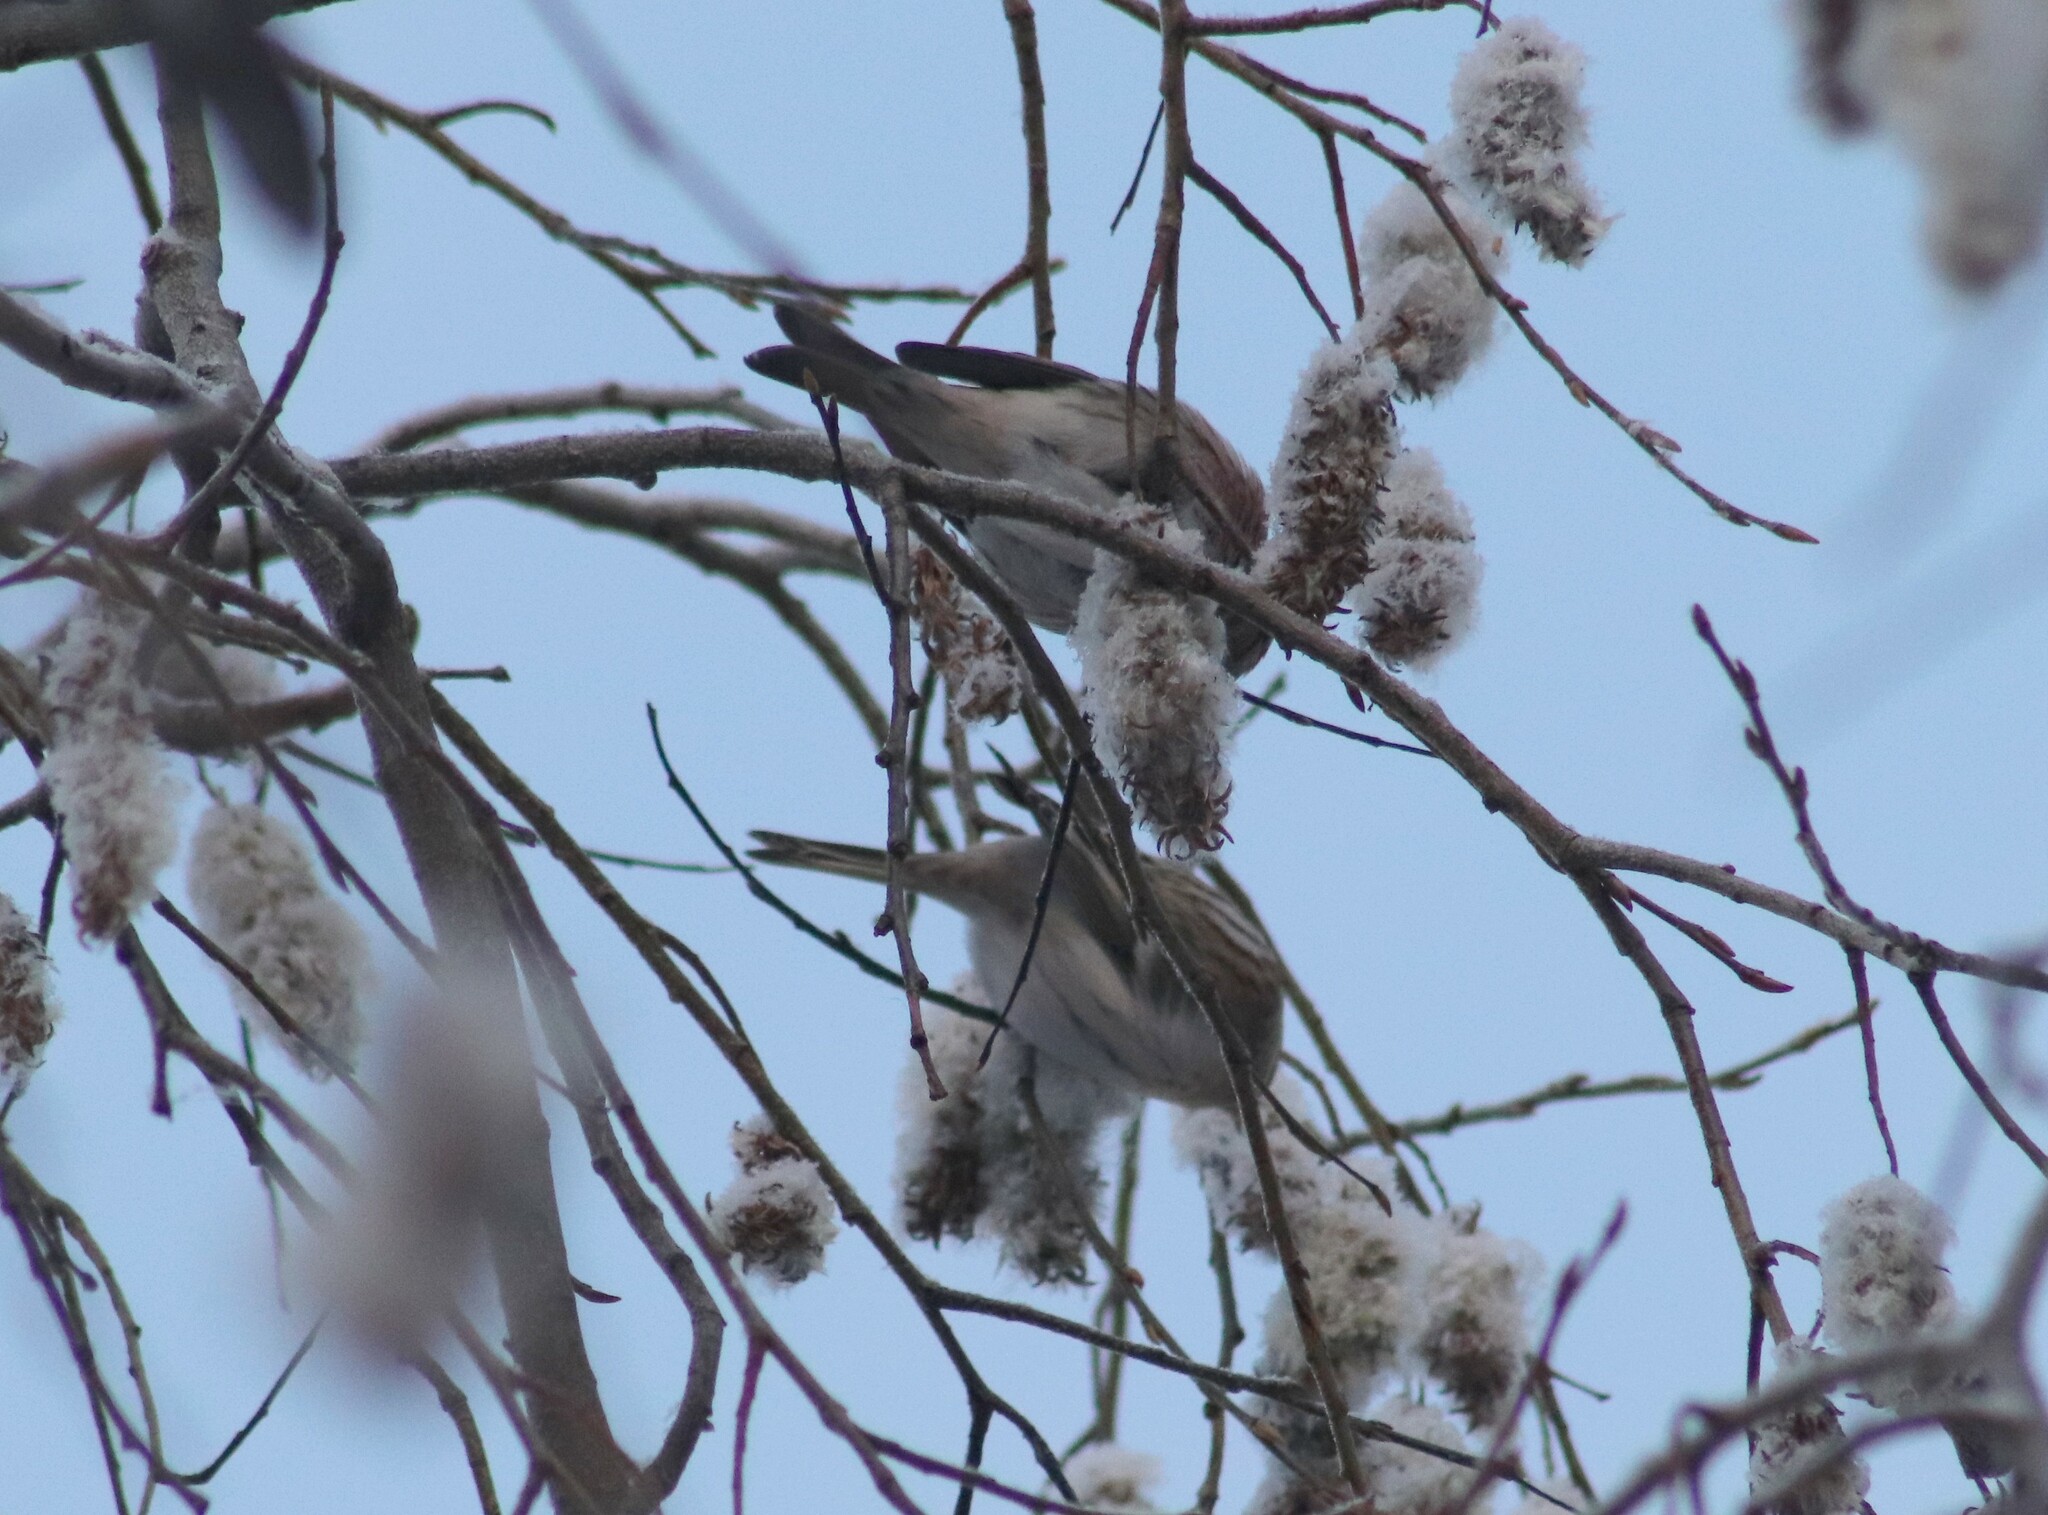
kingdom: Animalia
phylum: Chordata
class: Aves
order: Passeriformes
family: Fringillidae
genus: Acanthis
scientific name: Acanthis flammea
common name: Common redpoll
